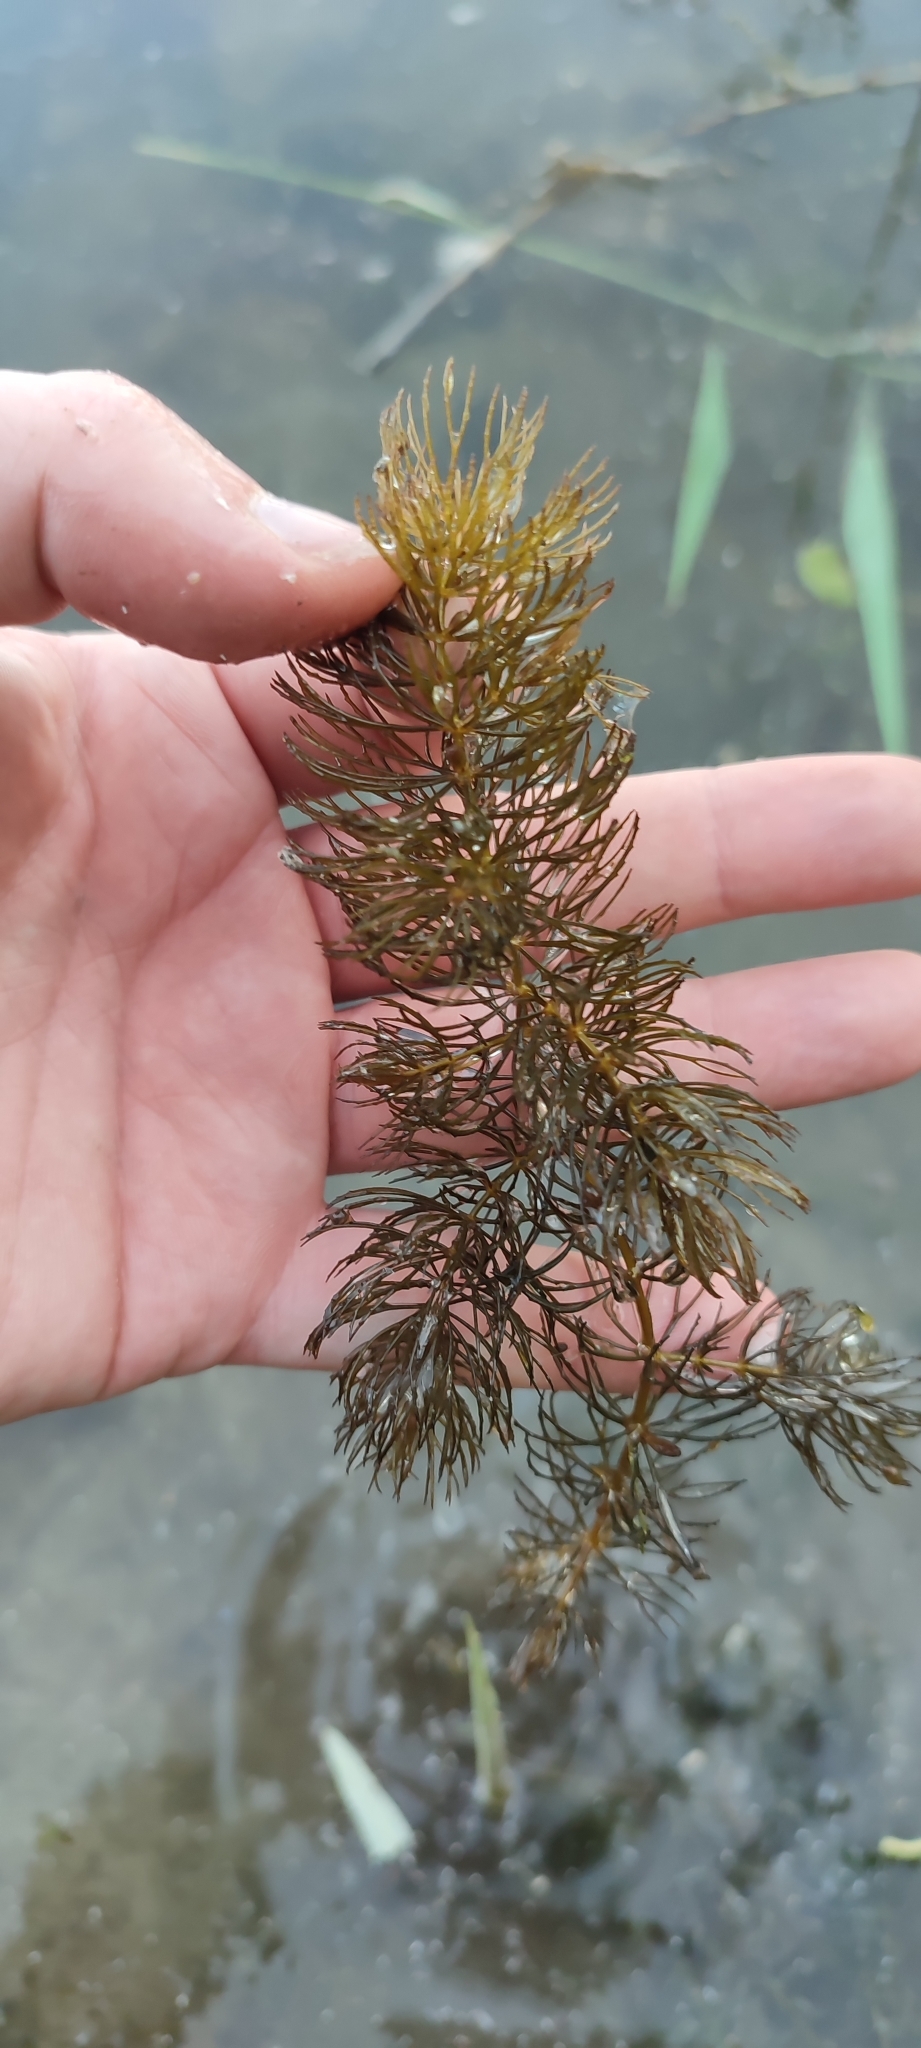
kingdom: Plantae
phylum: Tracheophyta
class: Magnoliopsida
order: Ceratophyllales
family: Ceratophyllaceae
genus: Ceratophyllum
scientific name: Ceratophyllum demersum
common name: Rigid hornwort
